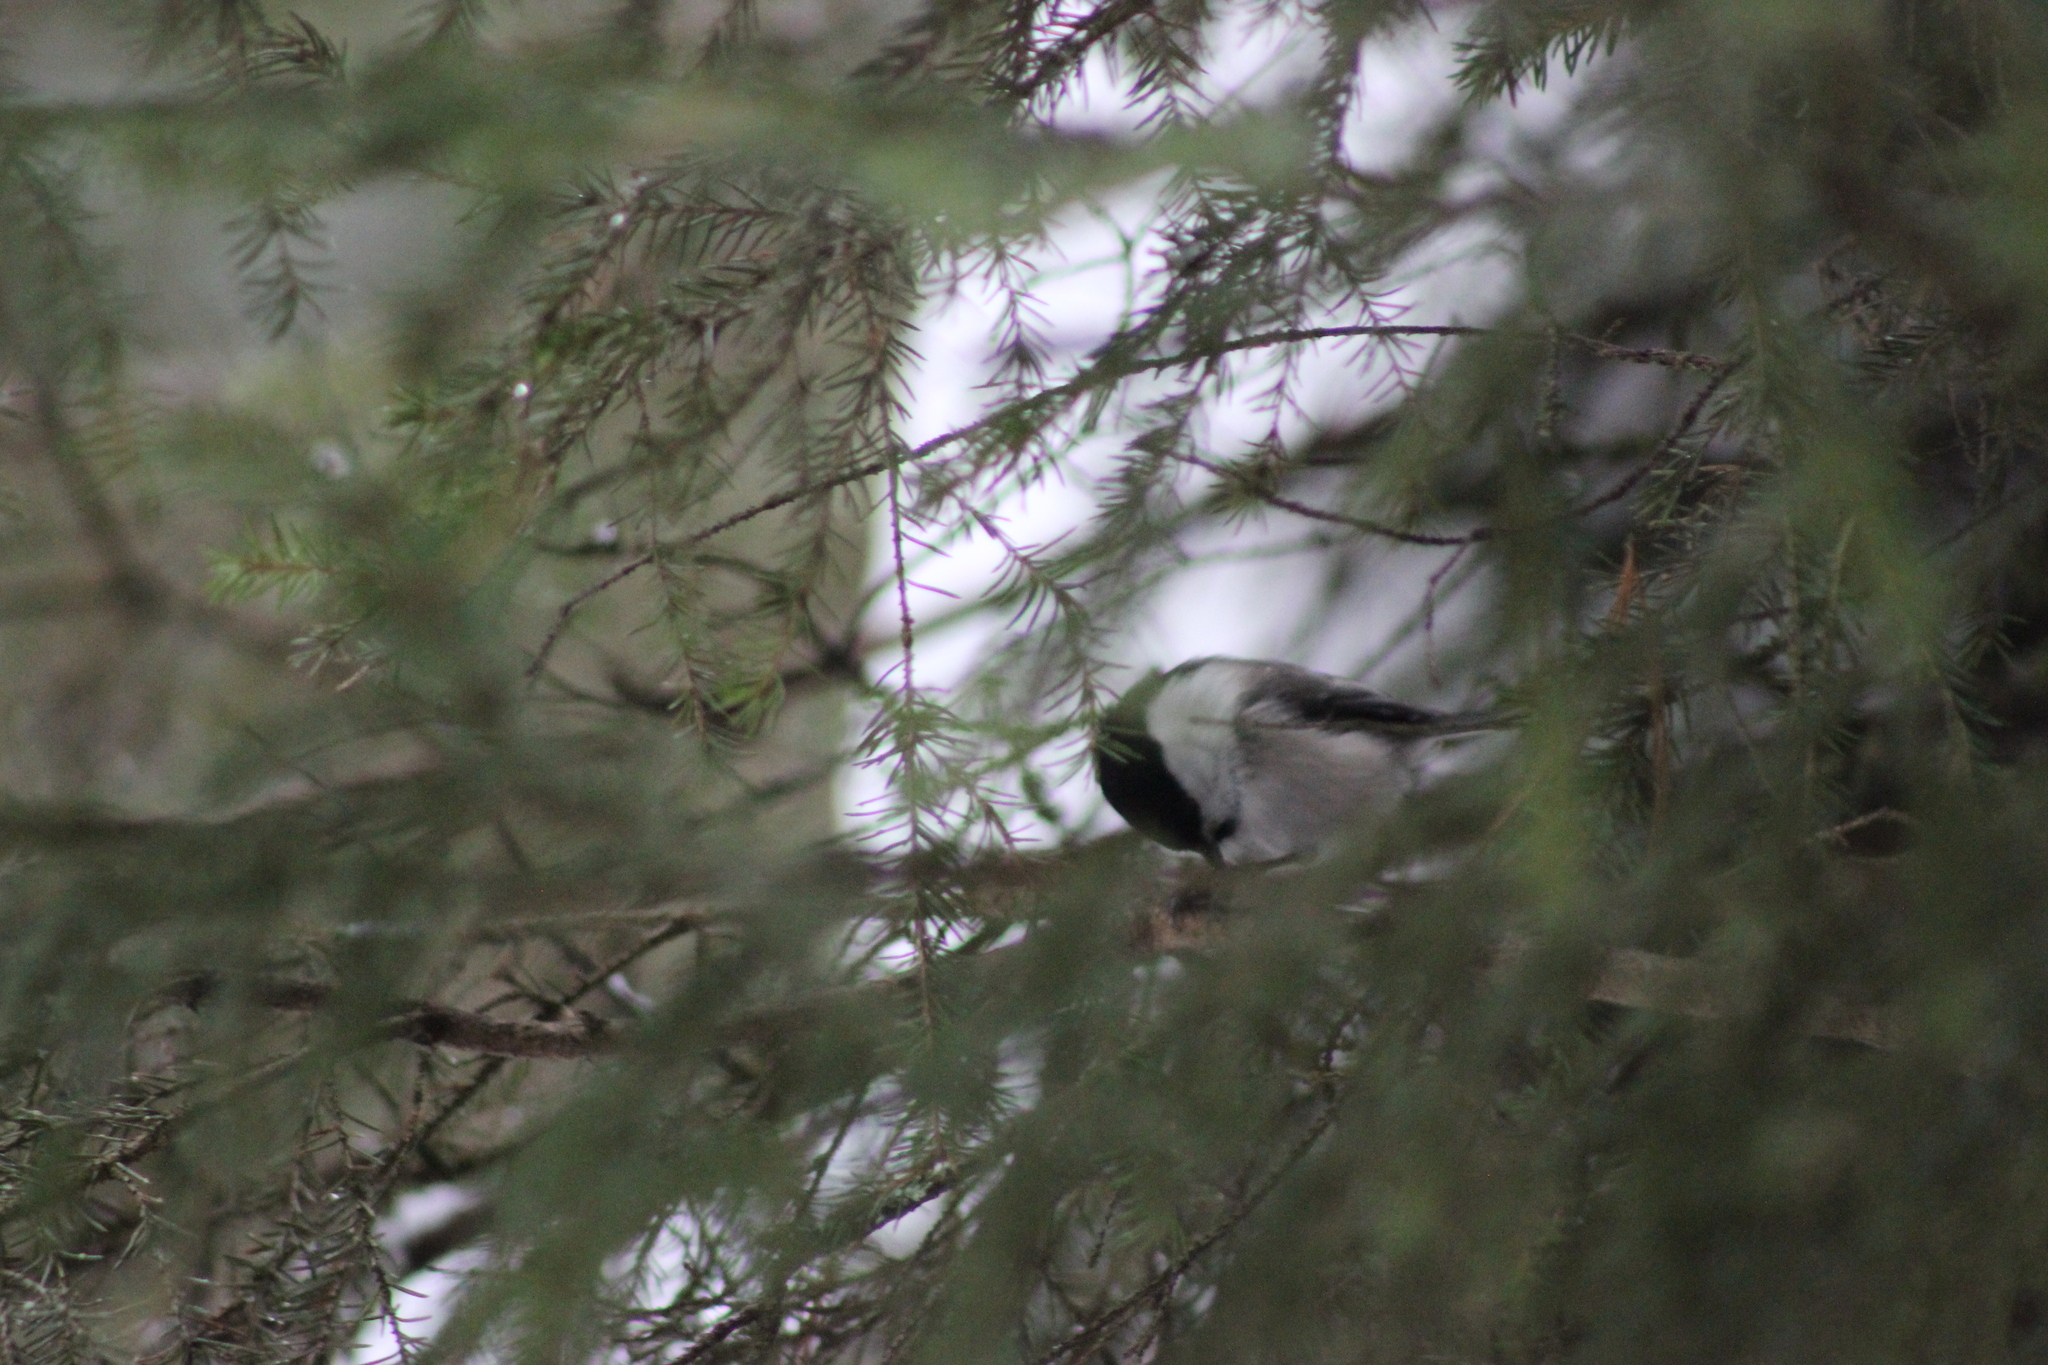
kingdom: Animalia
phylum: Chordata
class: Aves
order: Passeriformes
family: Paridae
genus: Poecile
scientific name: Poecile montanus
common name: Willow tit
